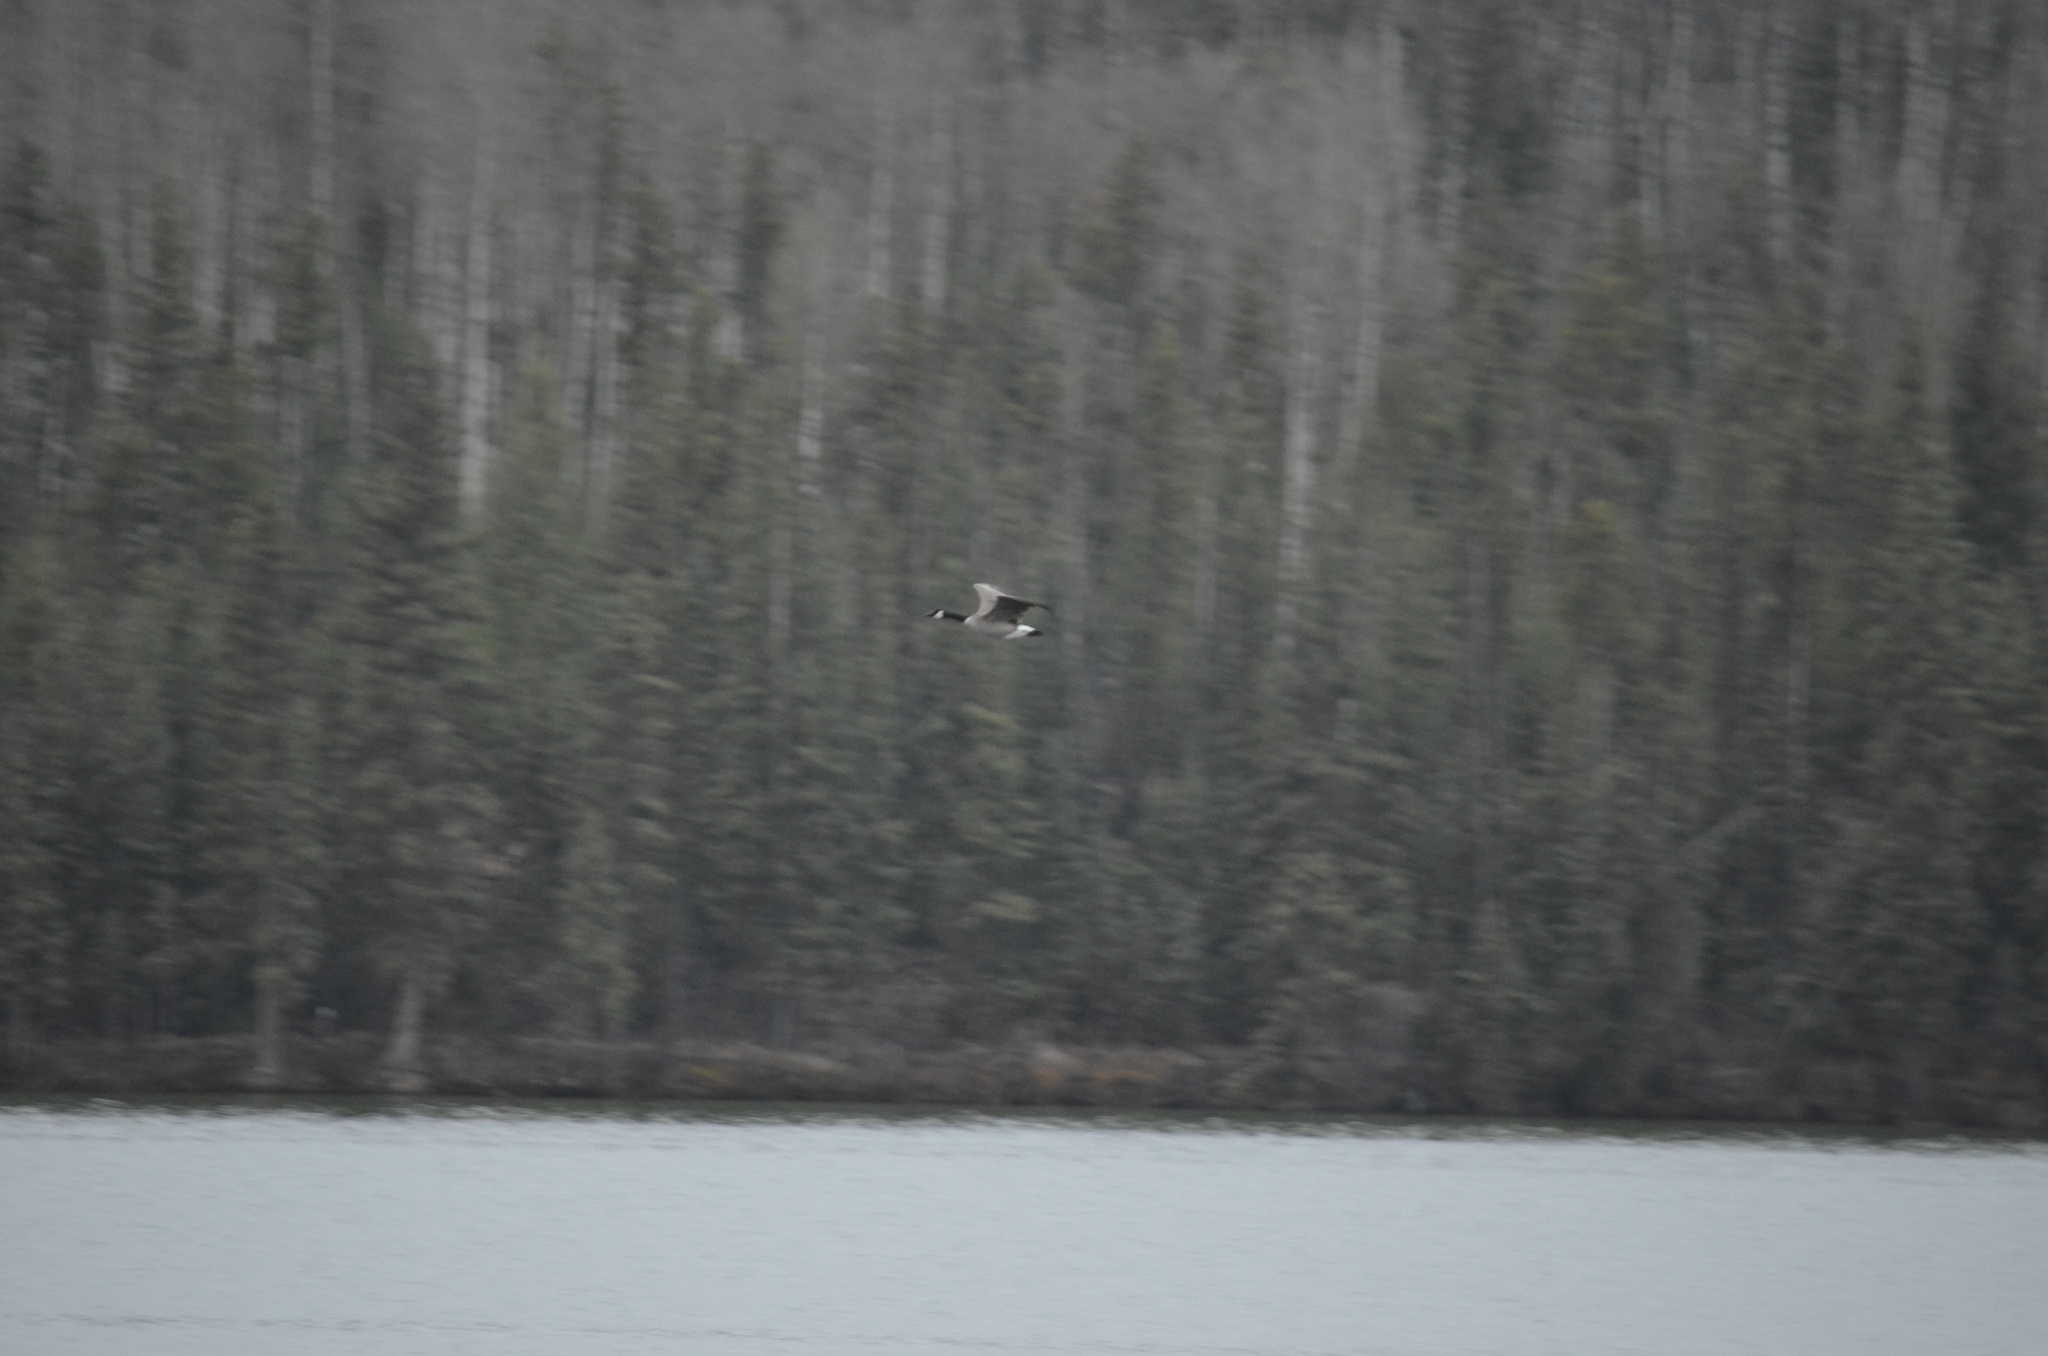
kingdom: Animalia
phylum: Chordata
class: Aves
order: Anseriformes
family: Anatidae
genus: Branta
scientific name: Branta canadensis
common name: Canada goose
